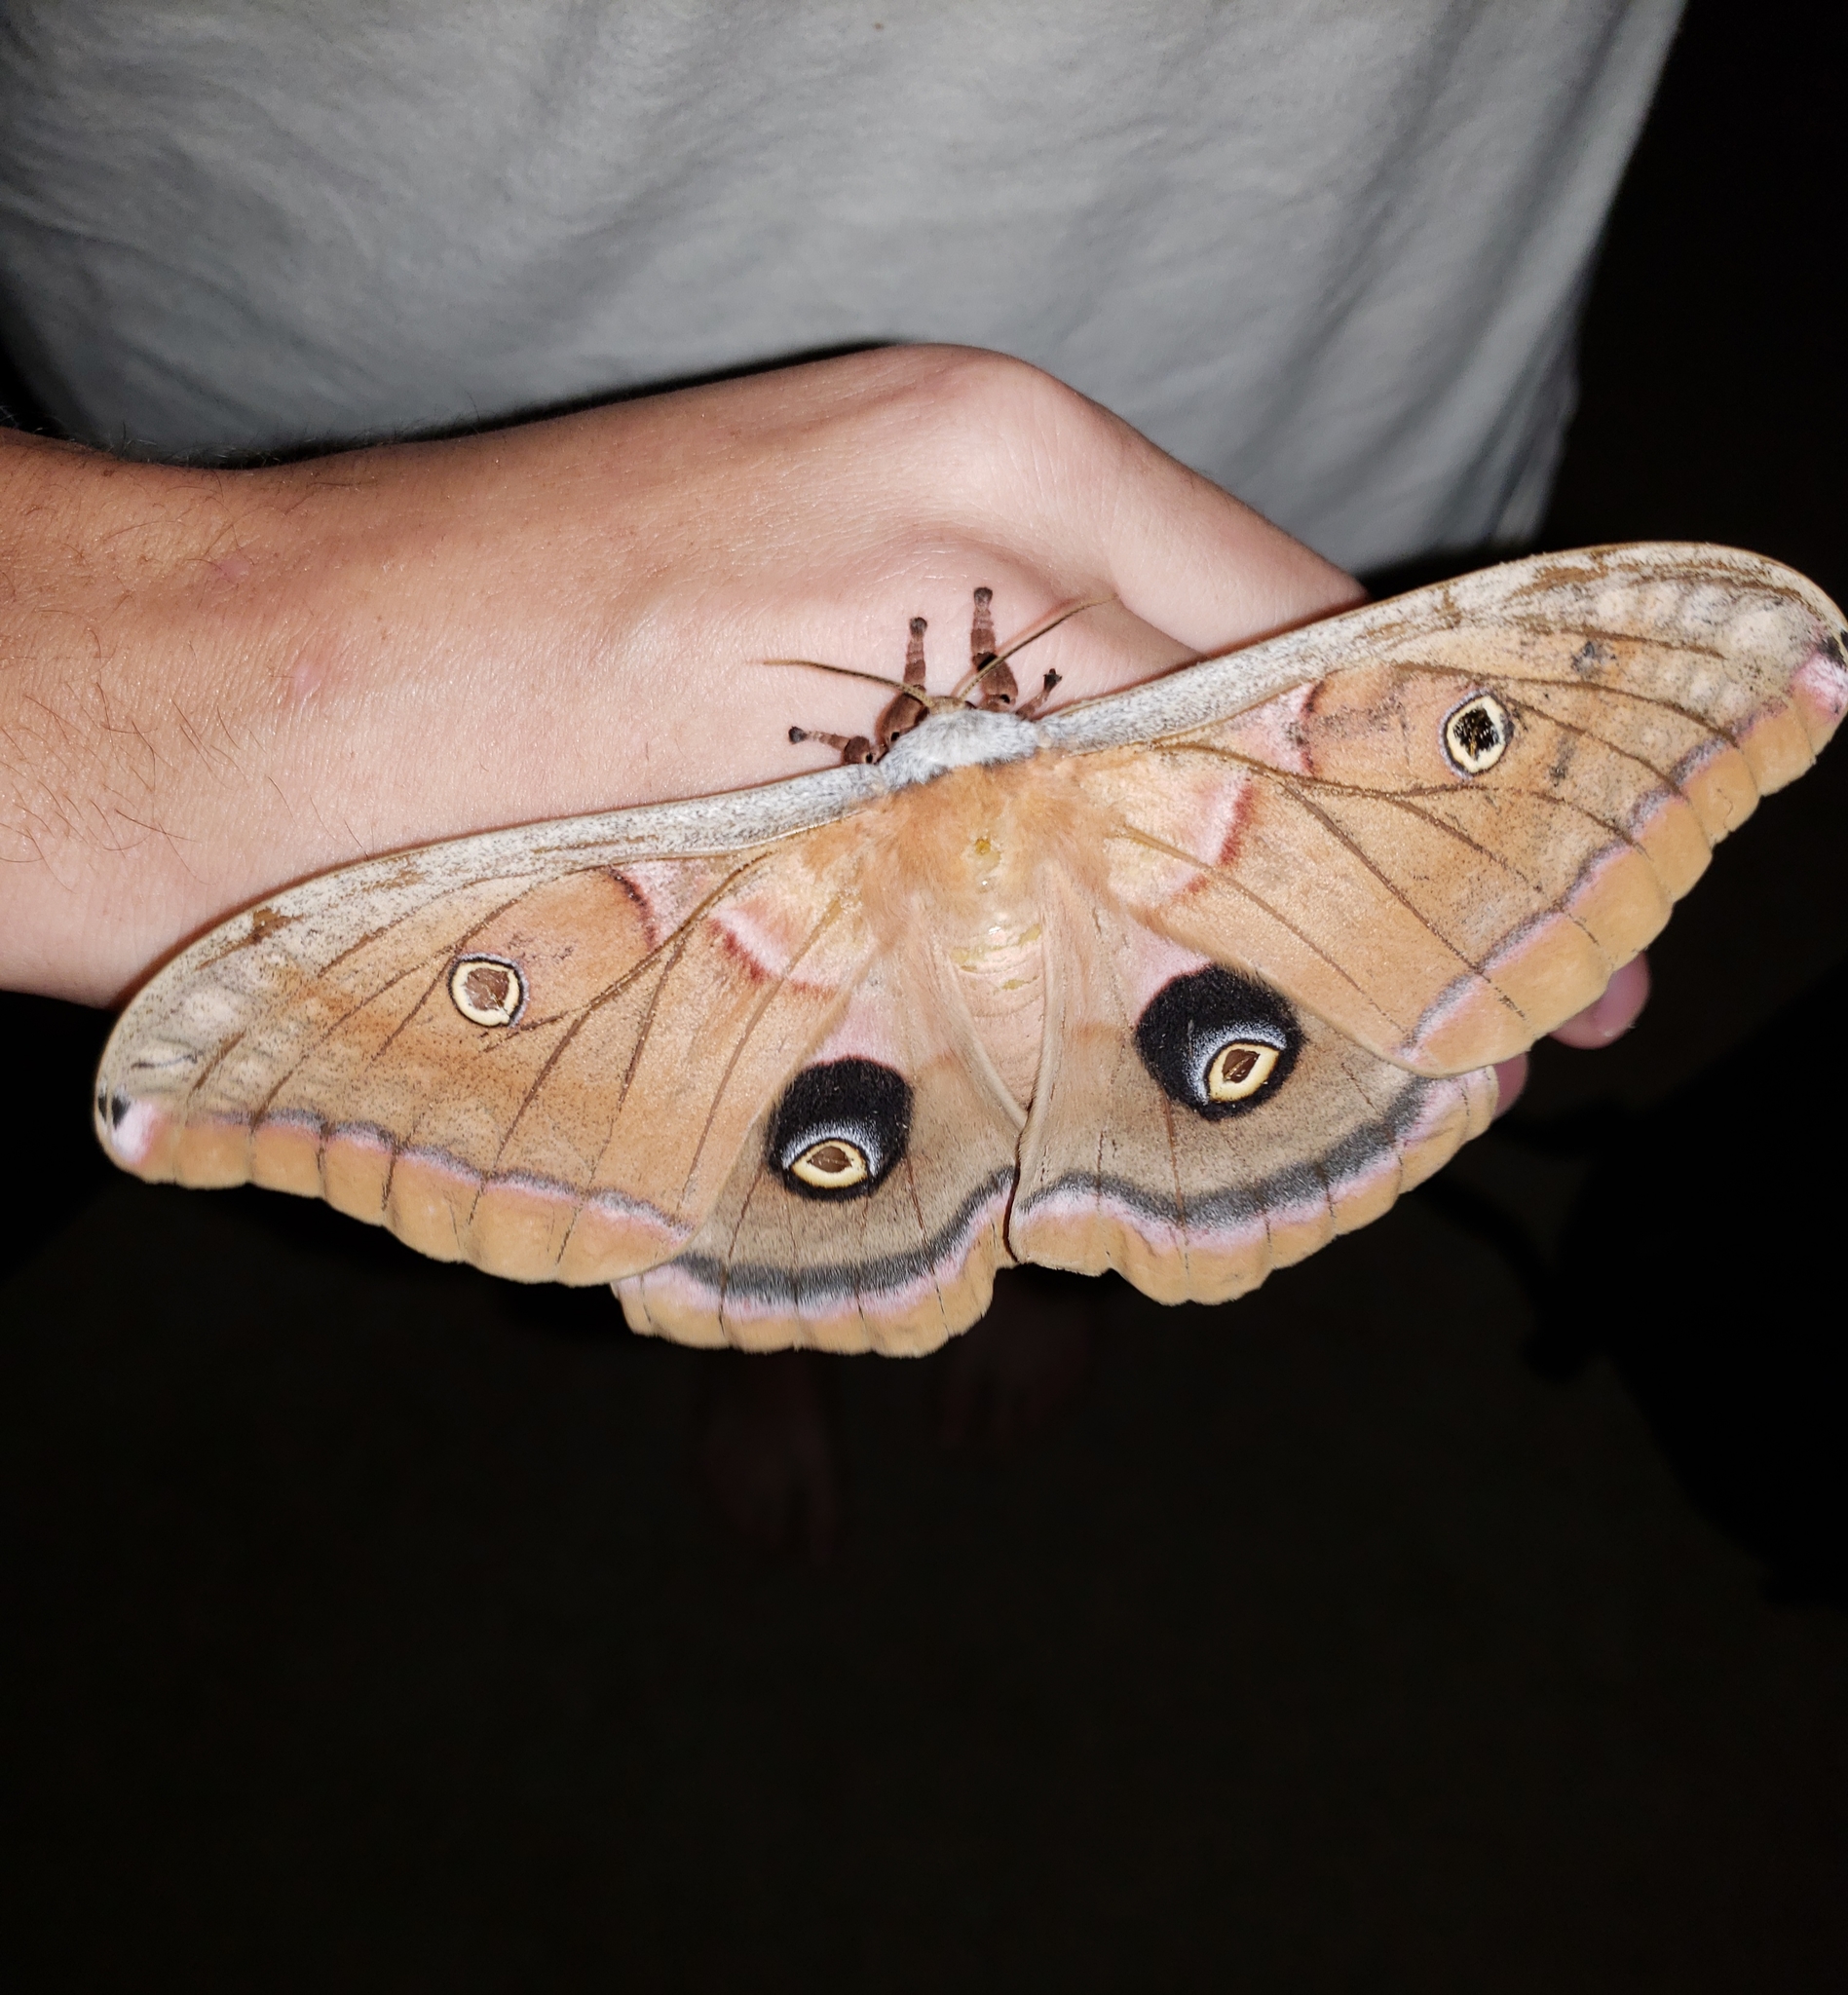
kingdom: Animalia
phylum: Arthropoda
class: Insecta
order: Lepidoptera
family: Saturniidae
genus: Antheraea
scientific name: Antheraea polyphemus
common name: Polyphemus moth
